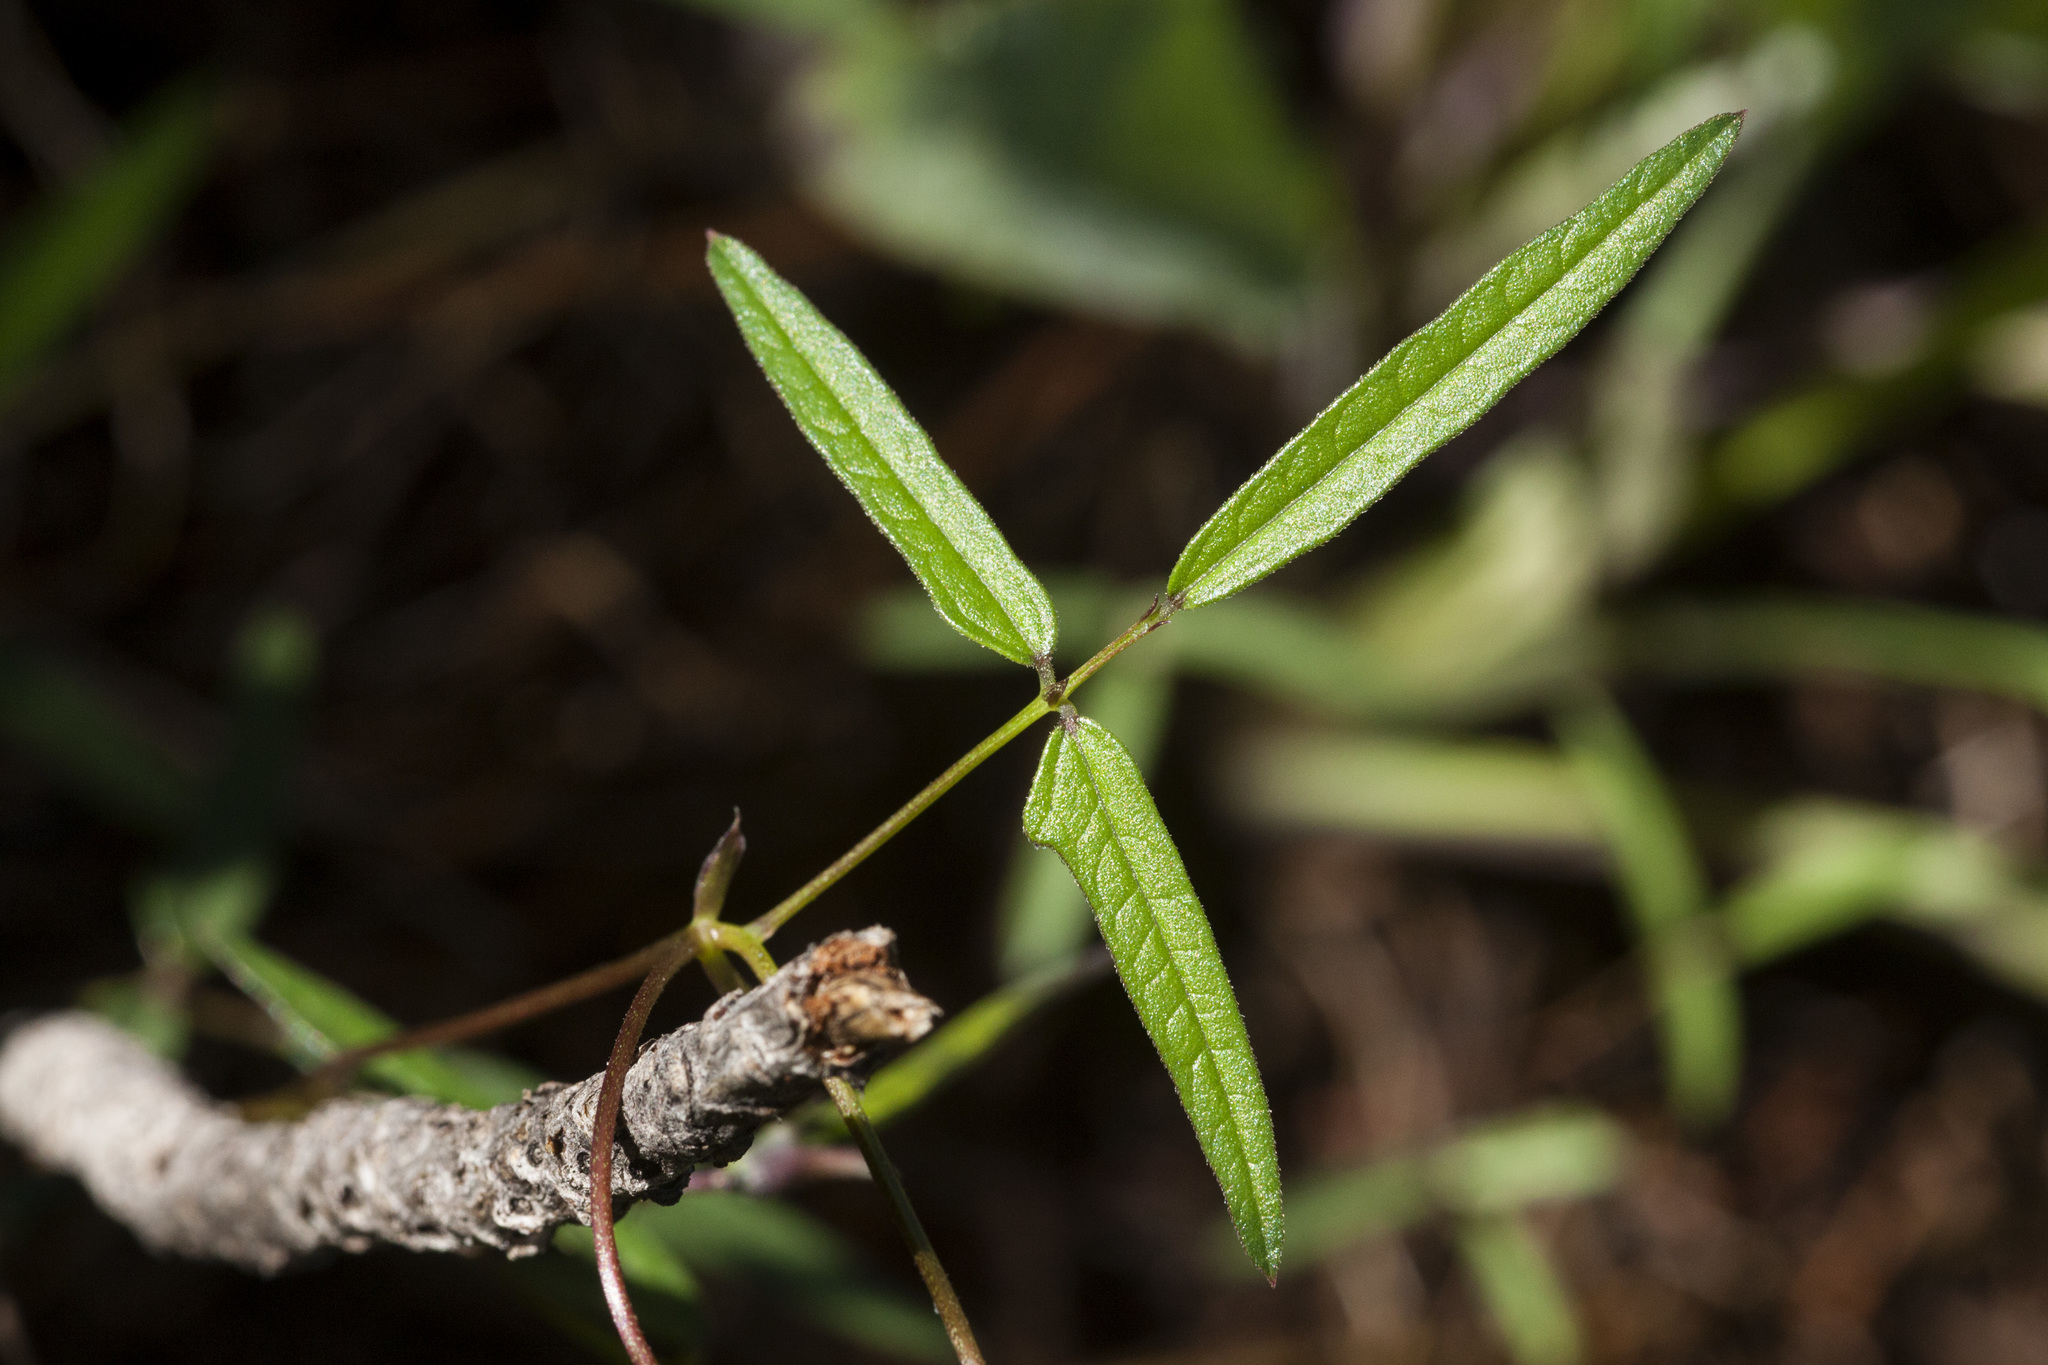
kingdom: Plantae
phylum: Tracheophyta
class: Magnoliopsida
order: Fabales
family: Fabaceae
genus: Phaseolus
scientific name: Phaseolus parvulus
